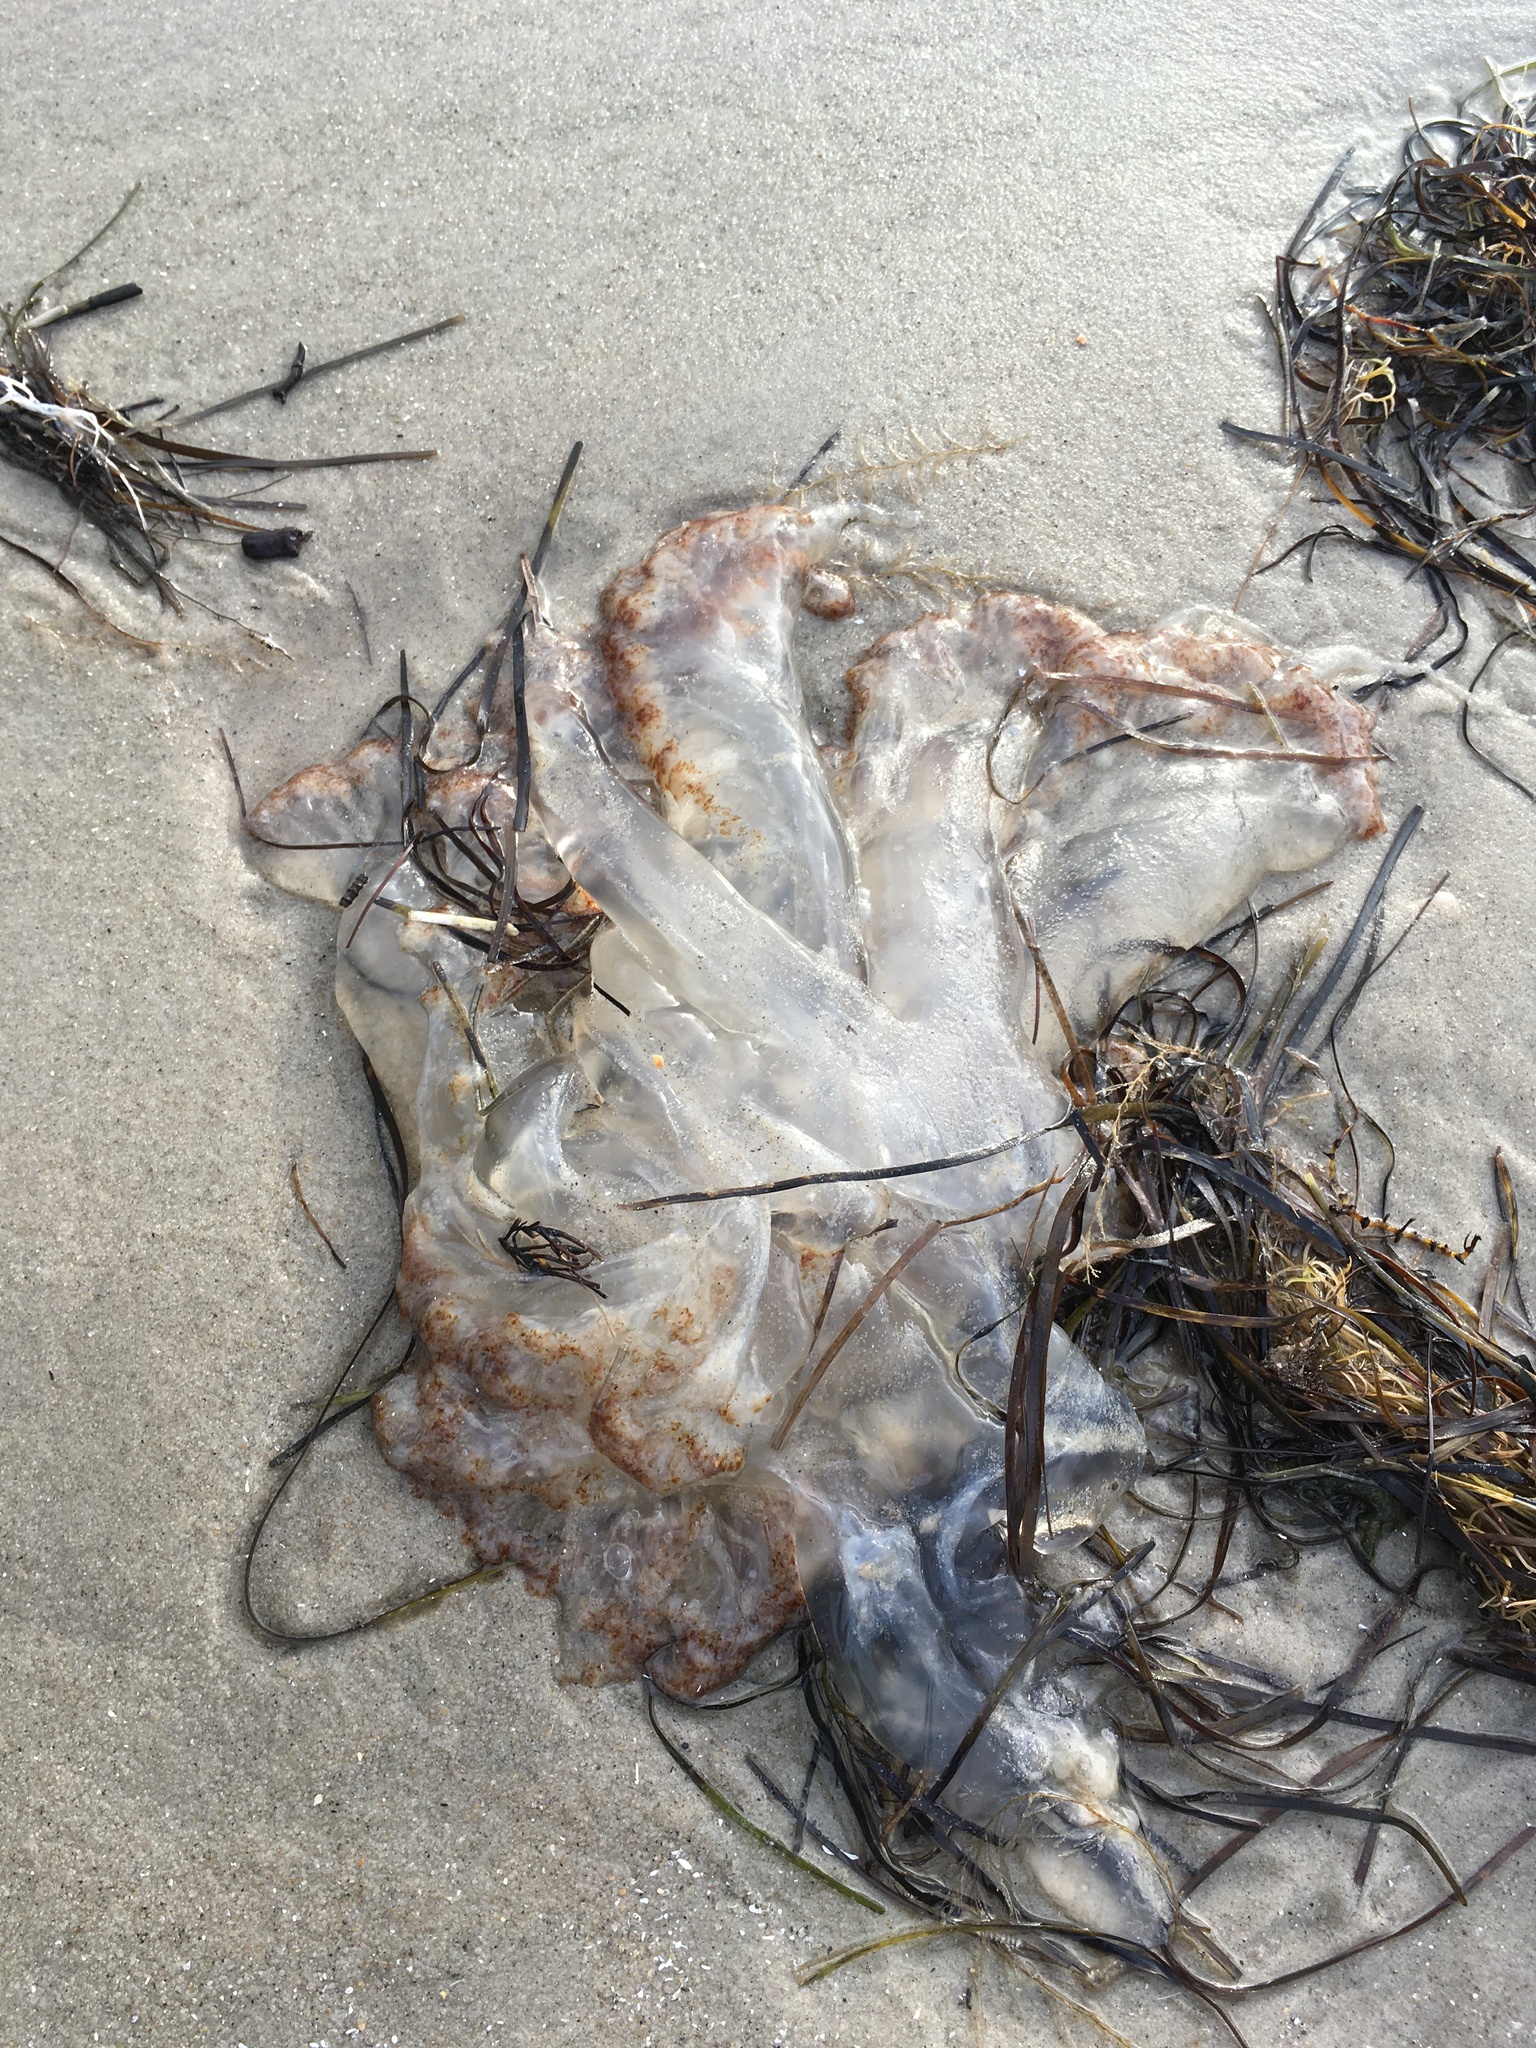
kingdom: Animalia
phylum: Cnidaria
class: Scyphozoa
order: Rhizostomeae
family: Rhizostomatidae
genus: Rhopilema
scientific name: Rhopilema verrilli
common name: Mushroom cap jellyfish
